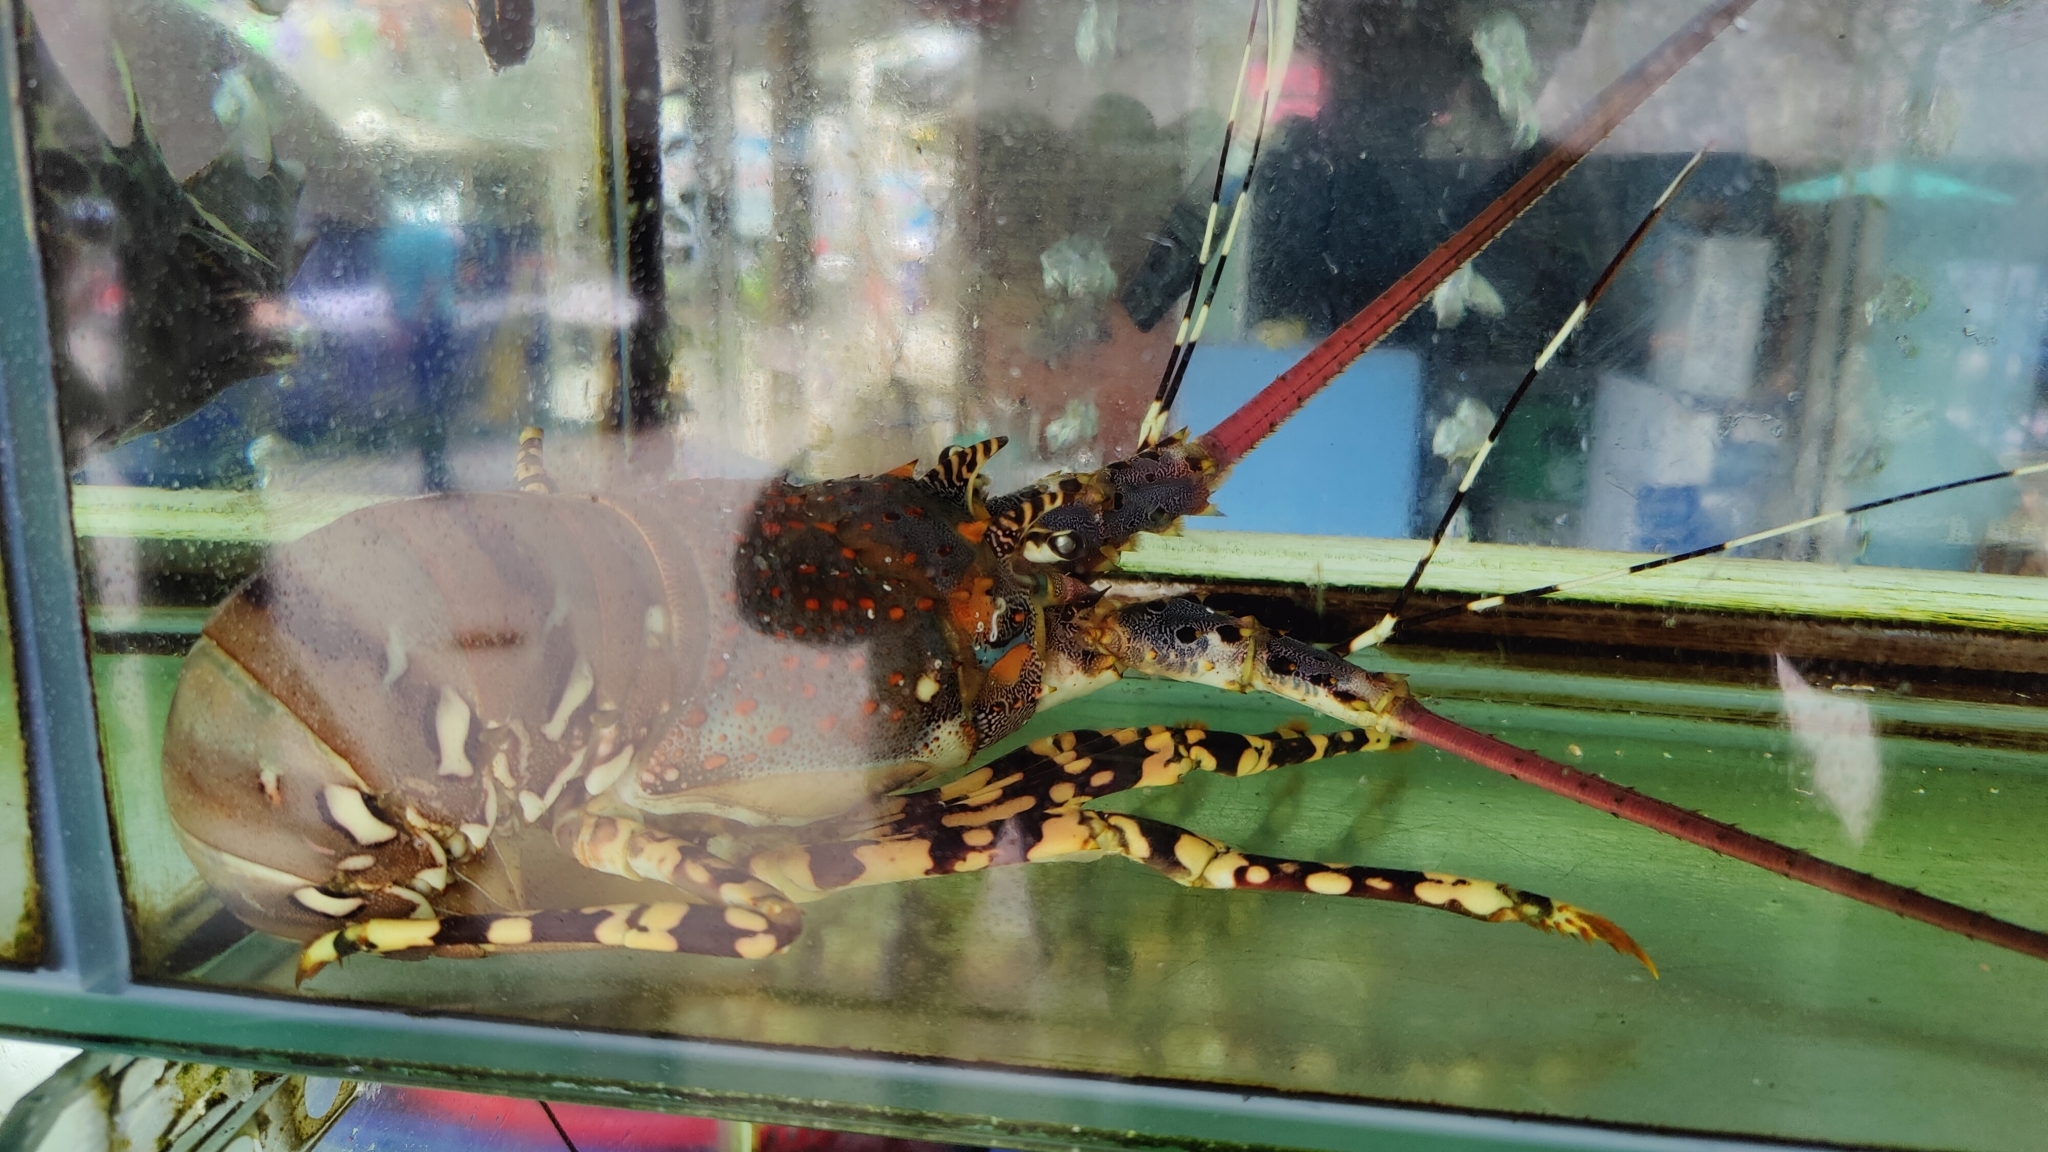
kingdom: Animalia
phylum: Arthropoda
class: Malacostraca
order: Decapoda
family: Palinuridae
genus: Panulirus
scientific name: Panulirus ornatus
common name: Ornate spiny lobster
